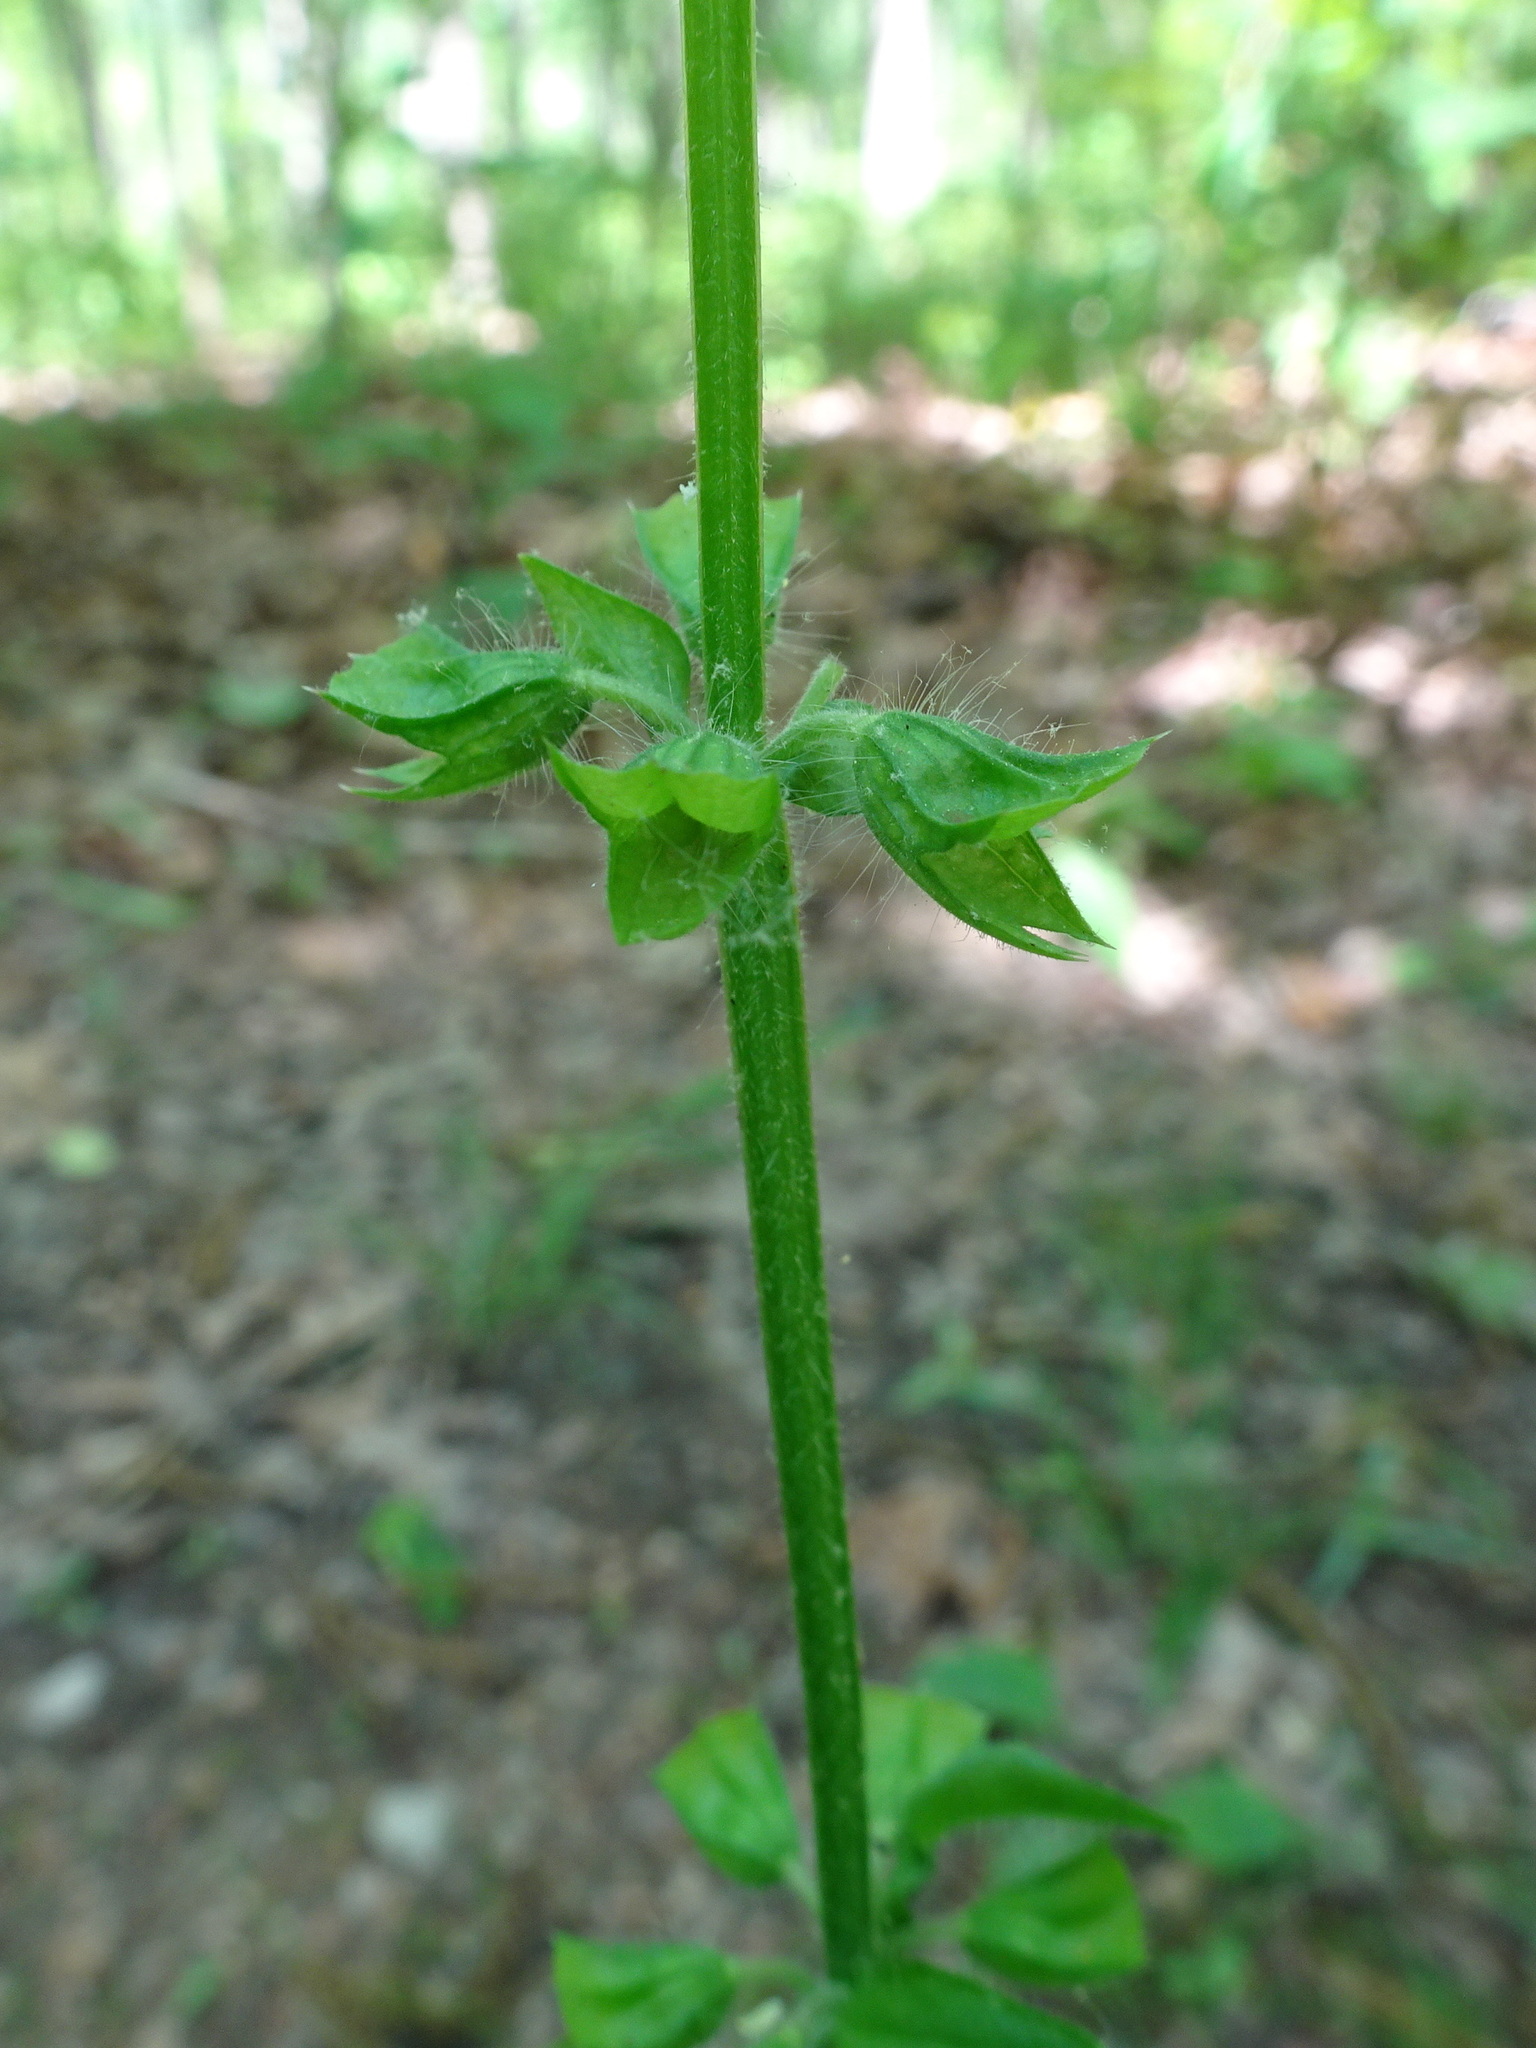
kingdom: Plantae
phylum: Tracheophyta
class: Magnoliopsida
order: Lamiales
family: Lamiaceae
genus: Salvia
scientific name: Salvia lyrata
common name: Cancerweed
